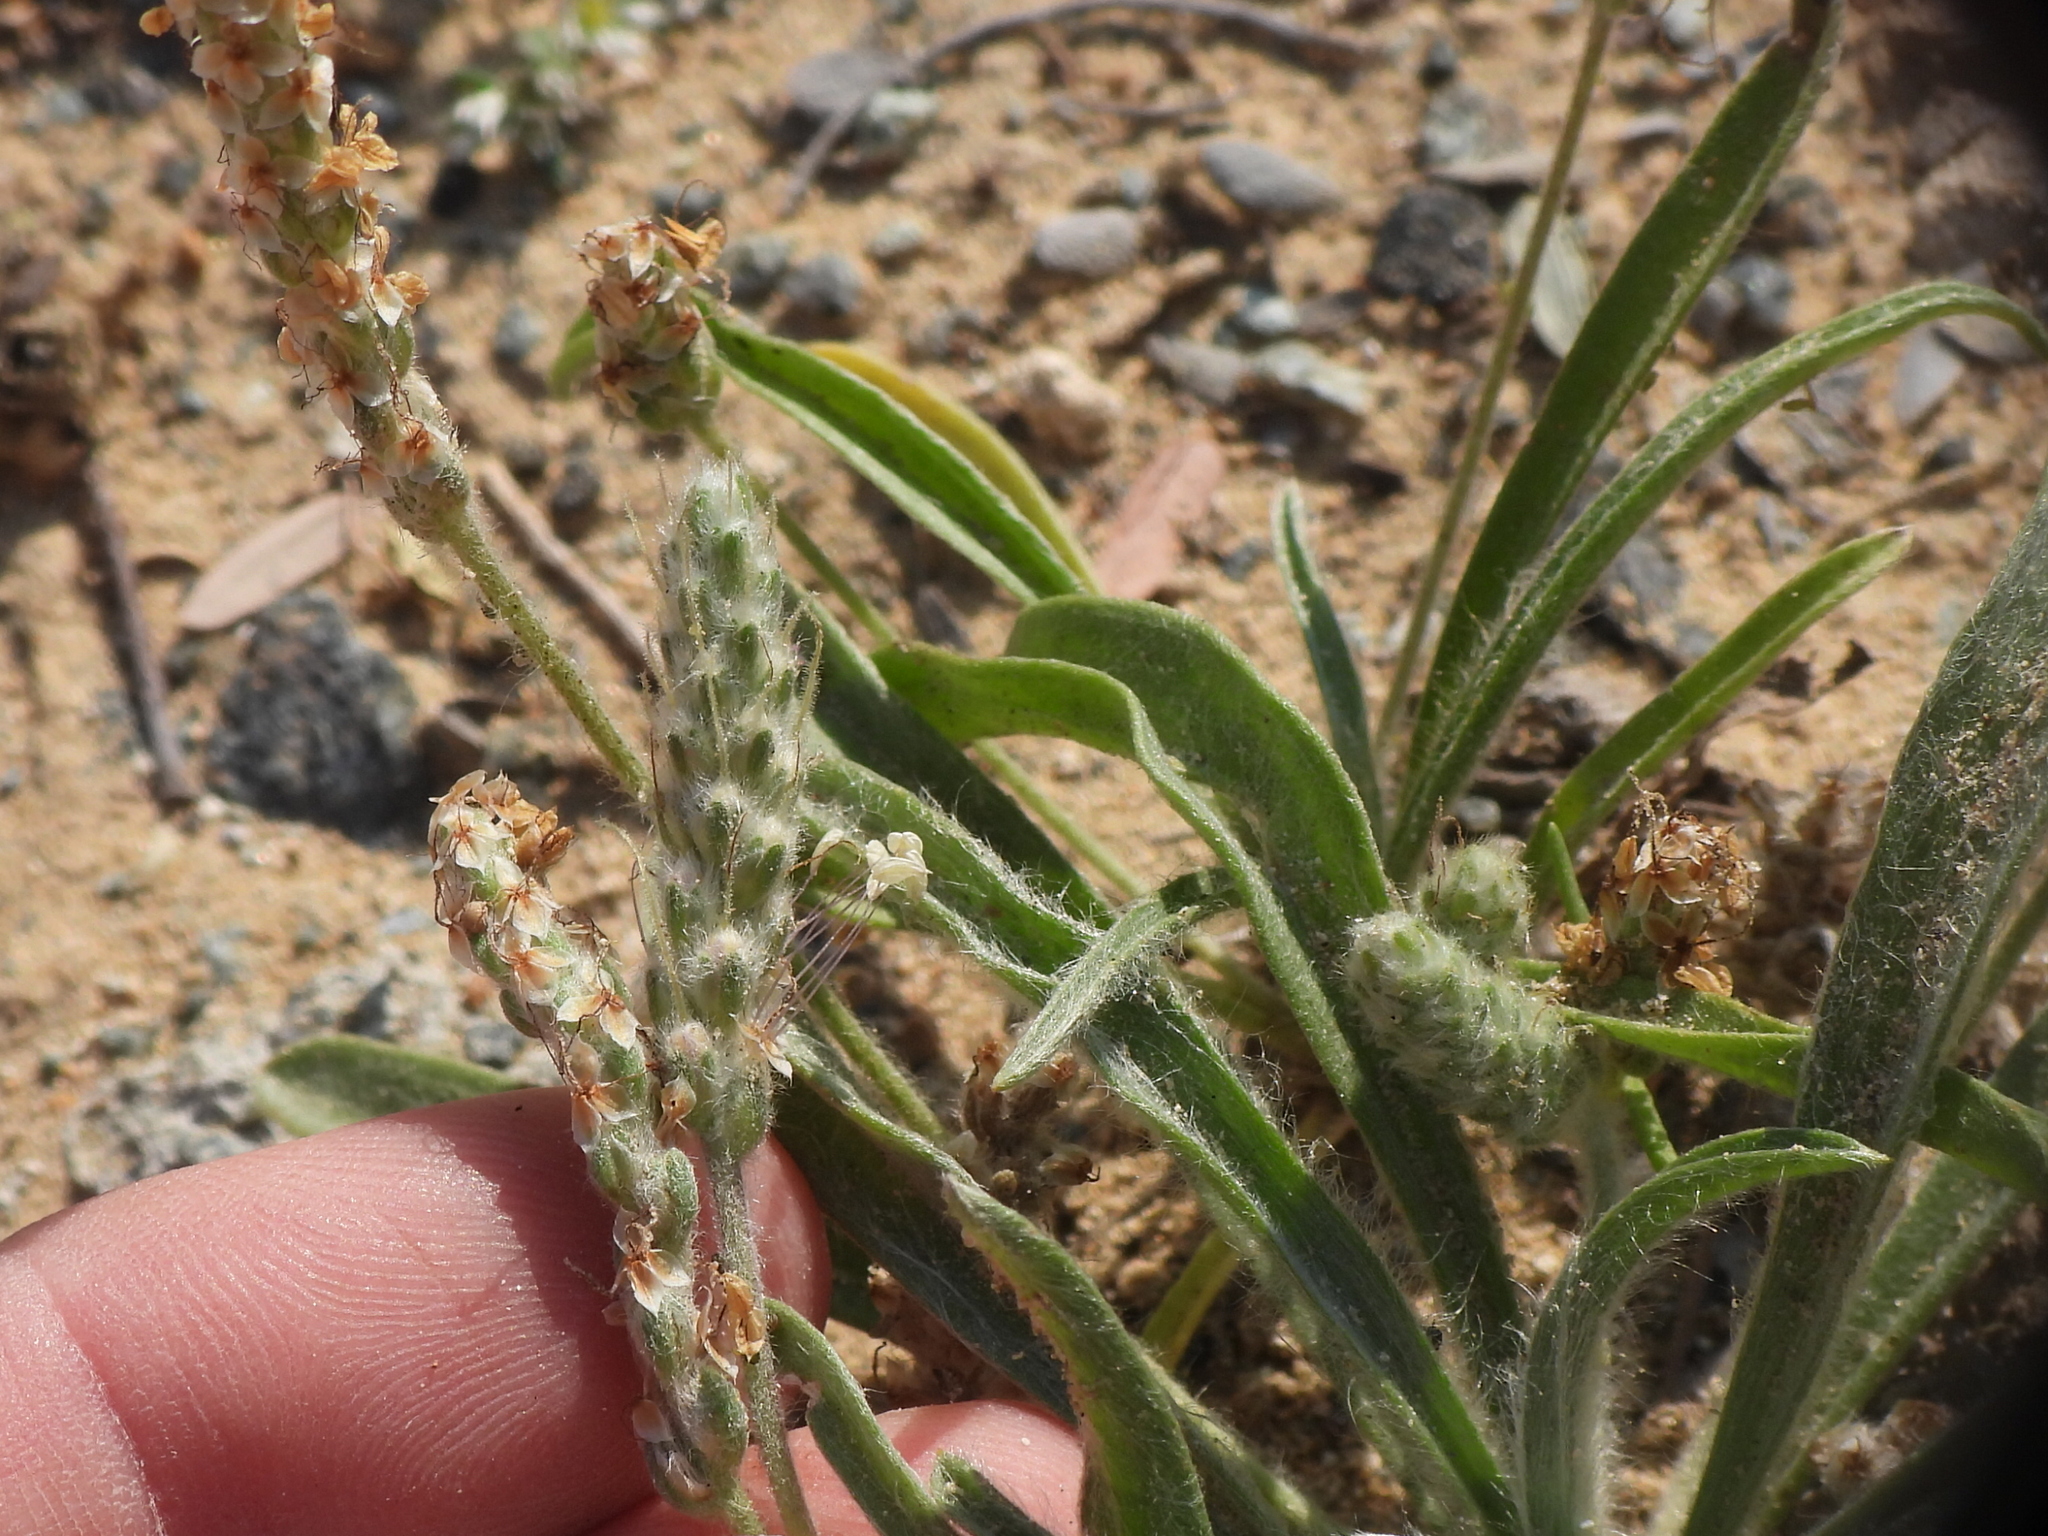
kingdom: Plantae
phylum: Tracheophyta
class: Magnoliopsida
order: Lamiales
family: Plantaginaceae
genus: Plantago
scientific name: Plantago boissieri
